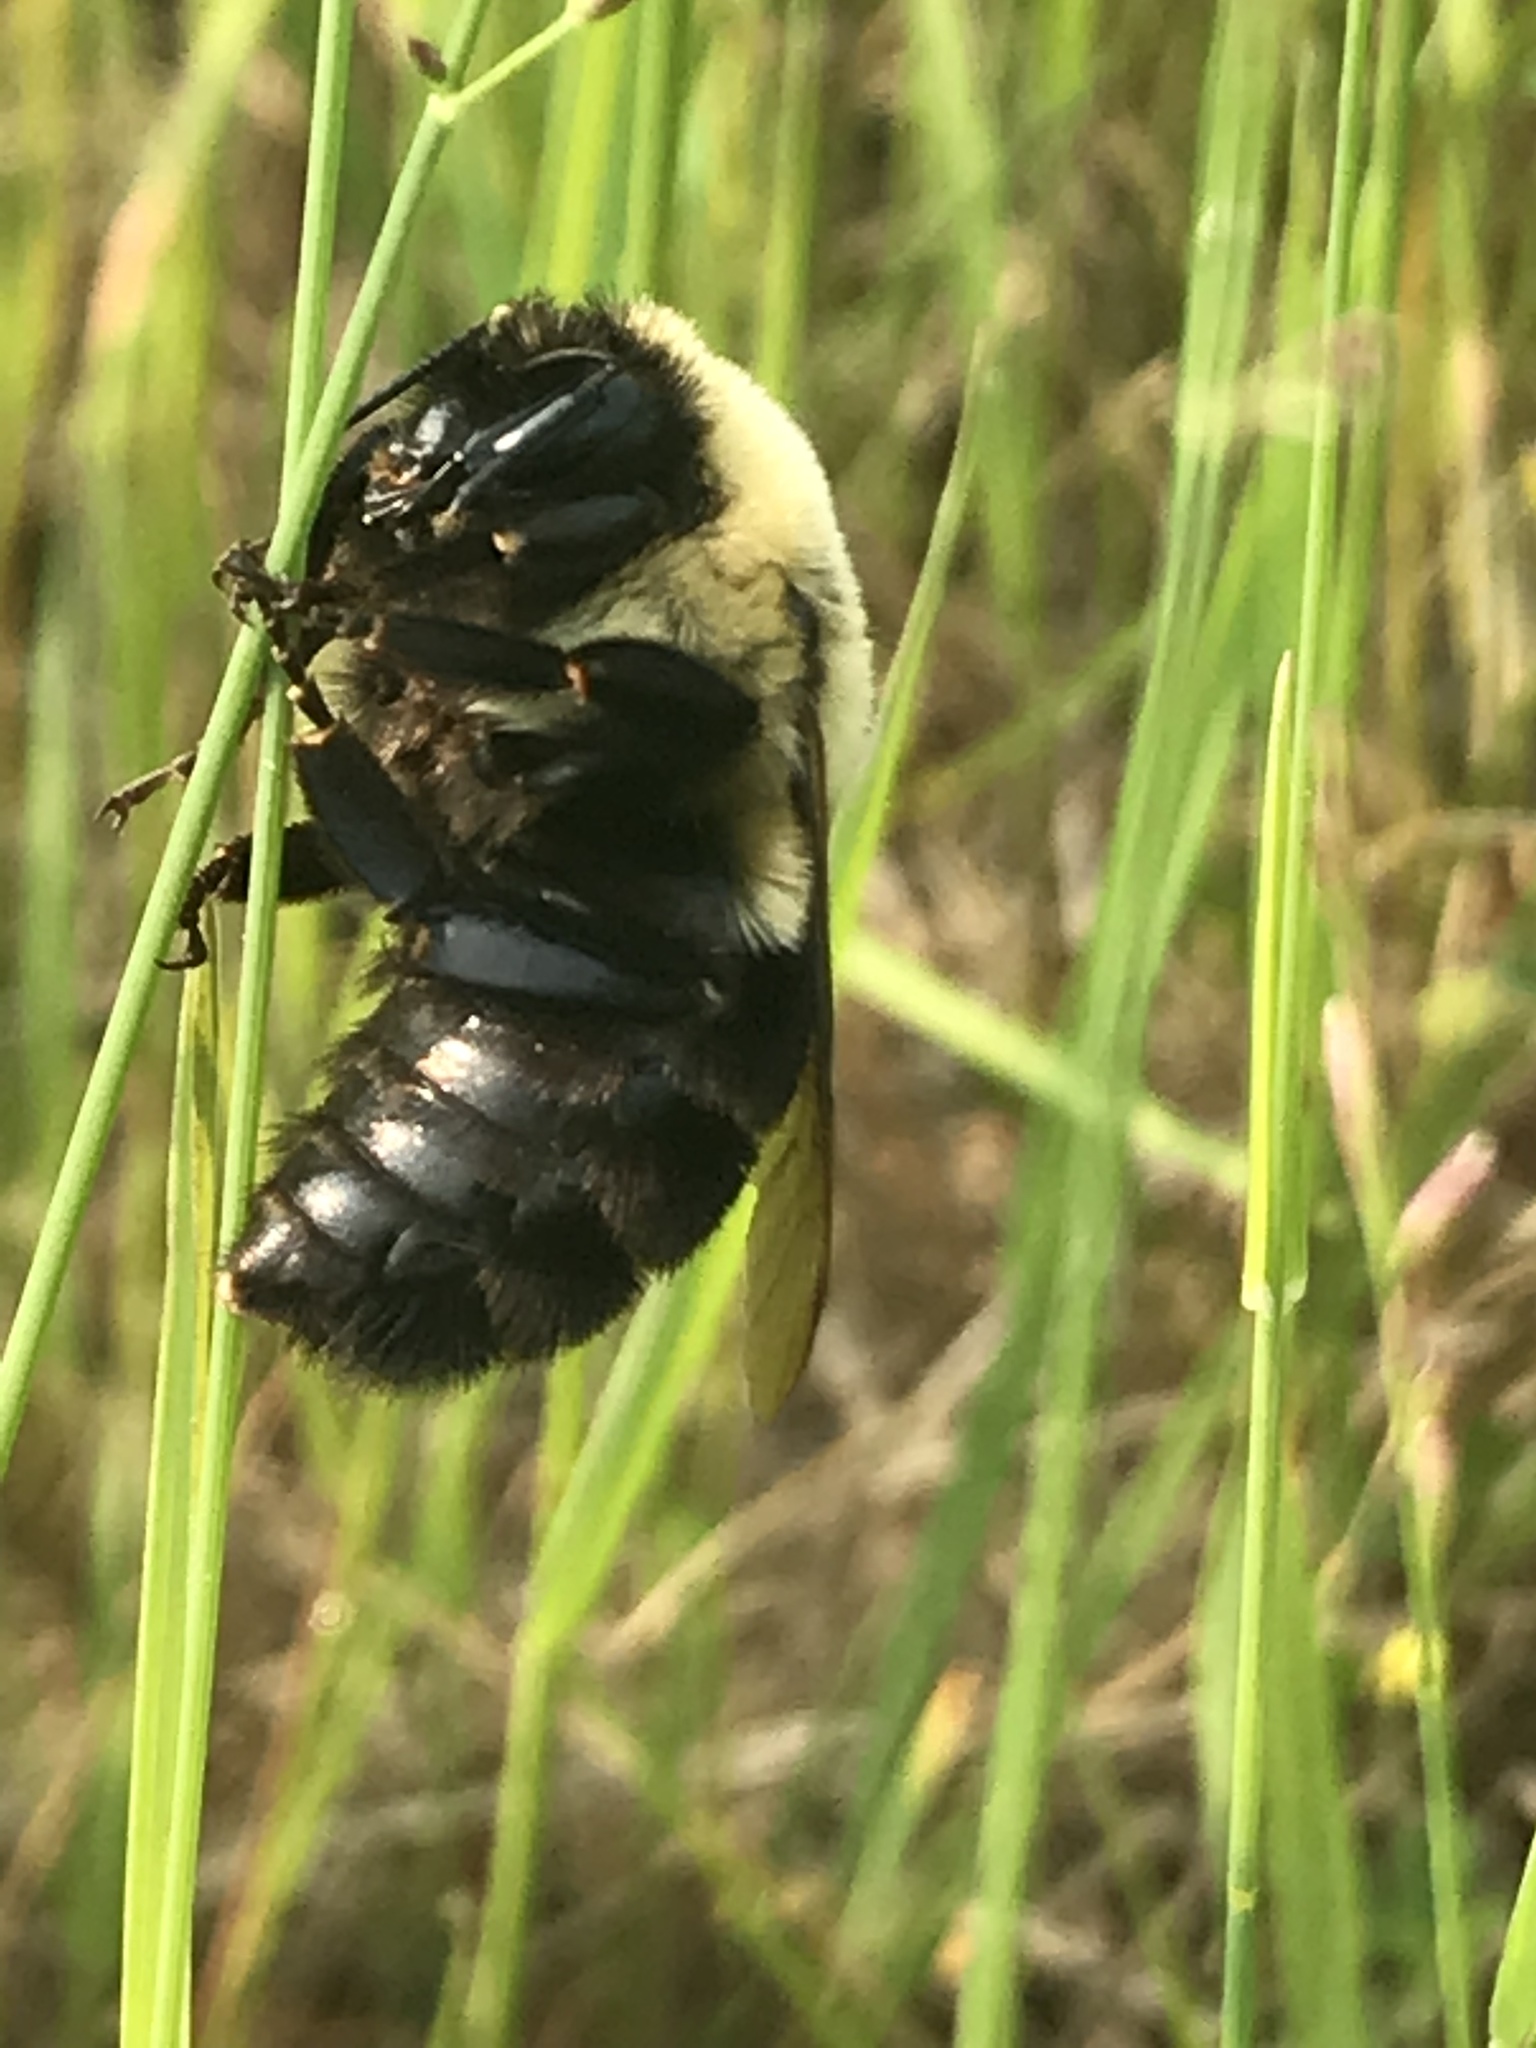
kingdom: Animalia
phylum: Arthropoda
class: Insecta
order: Hymenoptera
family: Apidae
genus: Bombus
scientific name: Bombus impatiens
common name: Common eastern bumble bee
